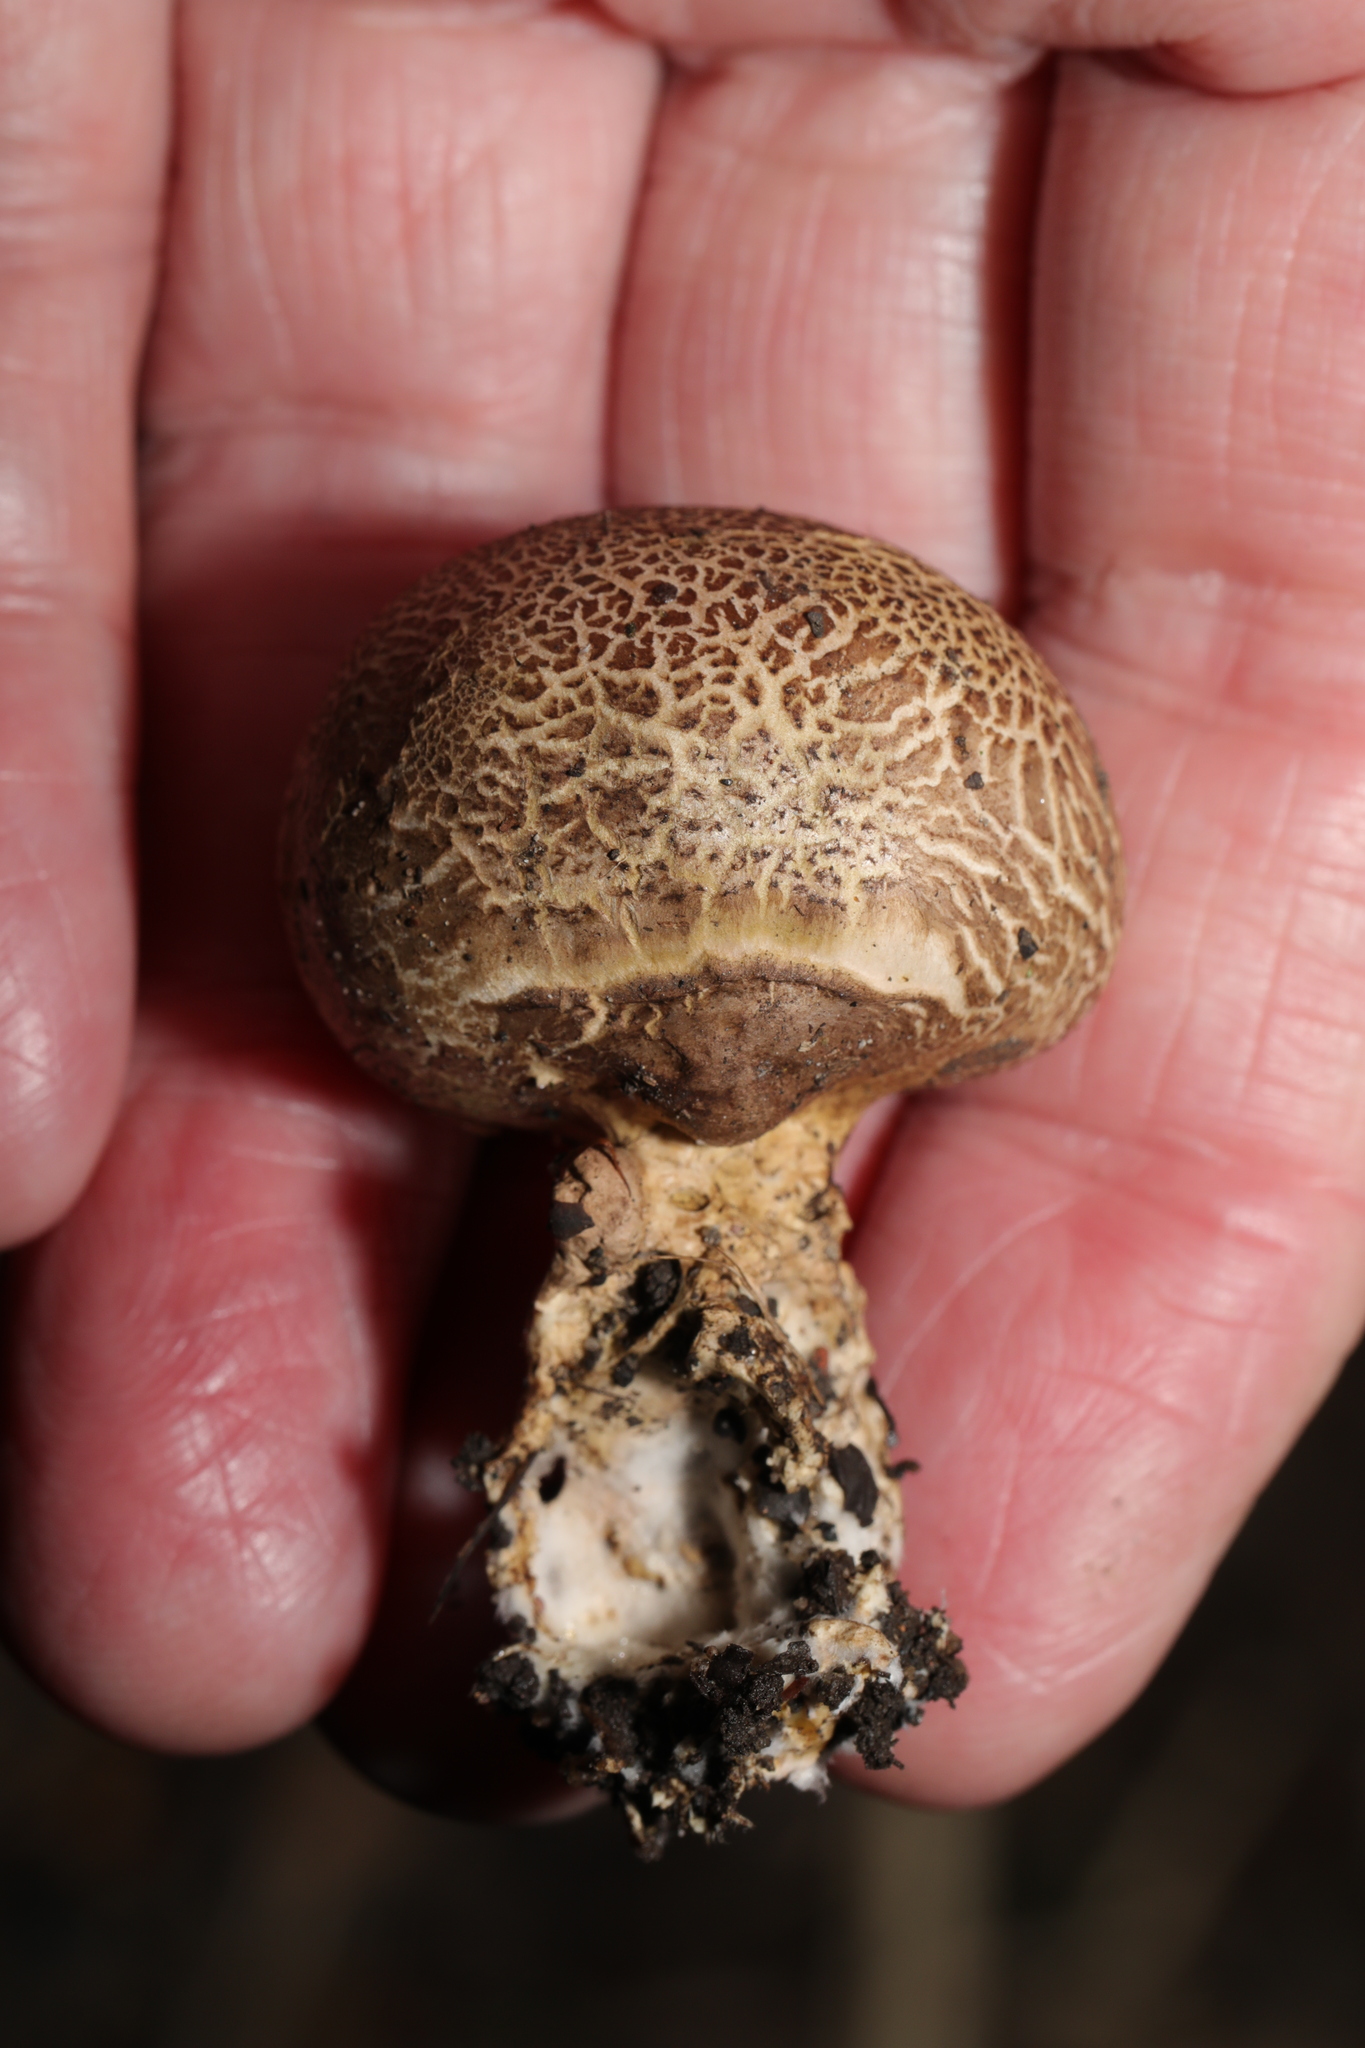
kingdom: Fungi
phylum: Basidiomycota
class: Agaricomycetes
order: Boletales
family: Sclerodermataceae
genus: Scleroderma
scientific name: Scleroderma citrinum
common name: Common earthball
